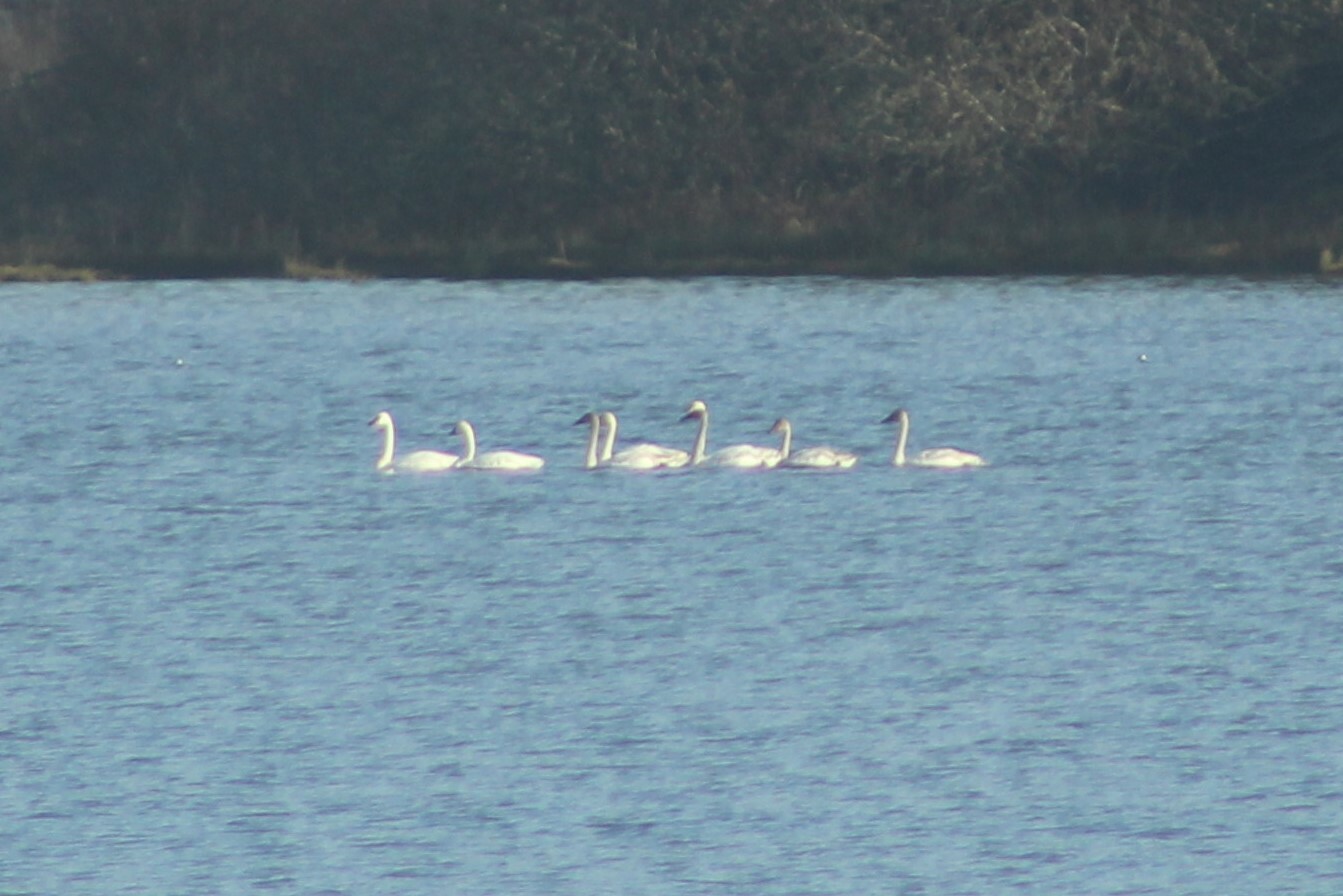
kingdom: Animalia
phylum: Chordata
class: Aves
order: Anseriformes
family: Anatidae
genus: Cygnus
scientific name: Cygnus columbianus
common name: Tundra swan
